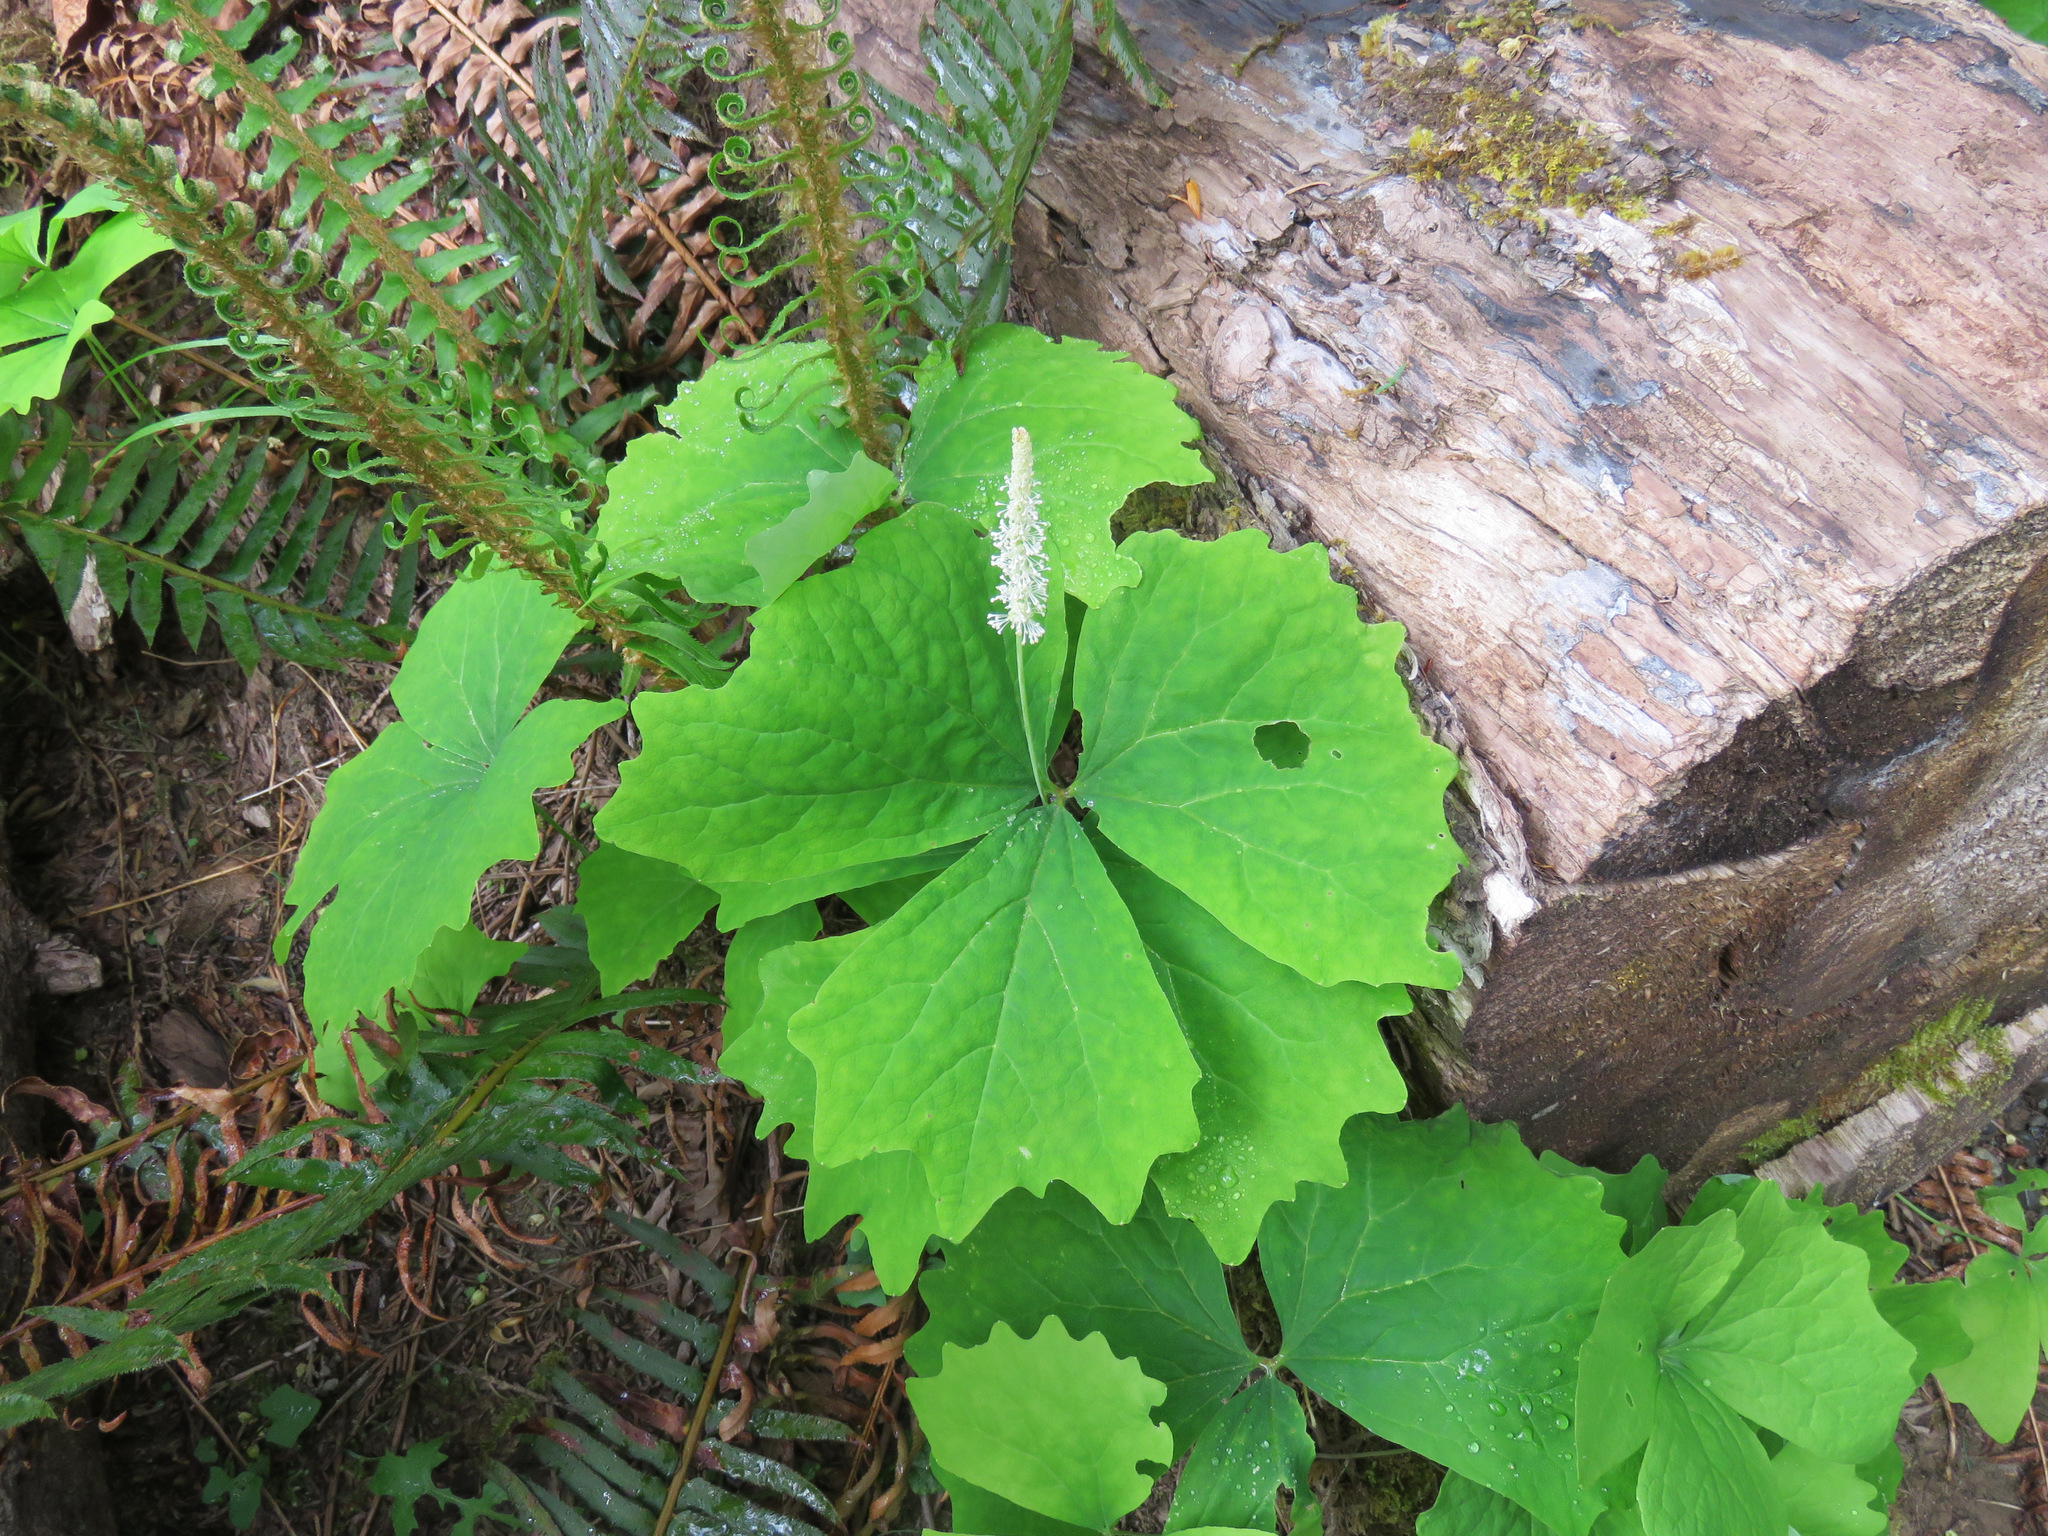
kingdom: Plantae
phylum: Tracheophyta
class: Magnoliopsida
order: Ranunculales
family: Berberidaceae
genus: Achlys
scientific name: Achlys triphylla
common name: Vanilla-leaf
